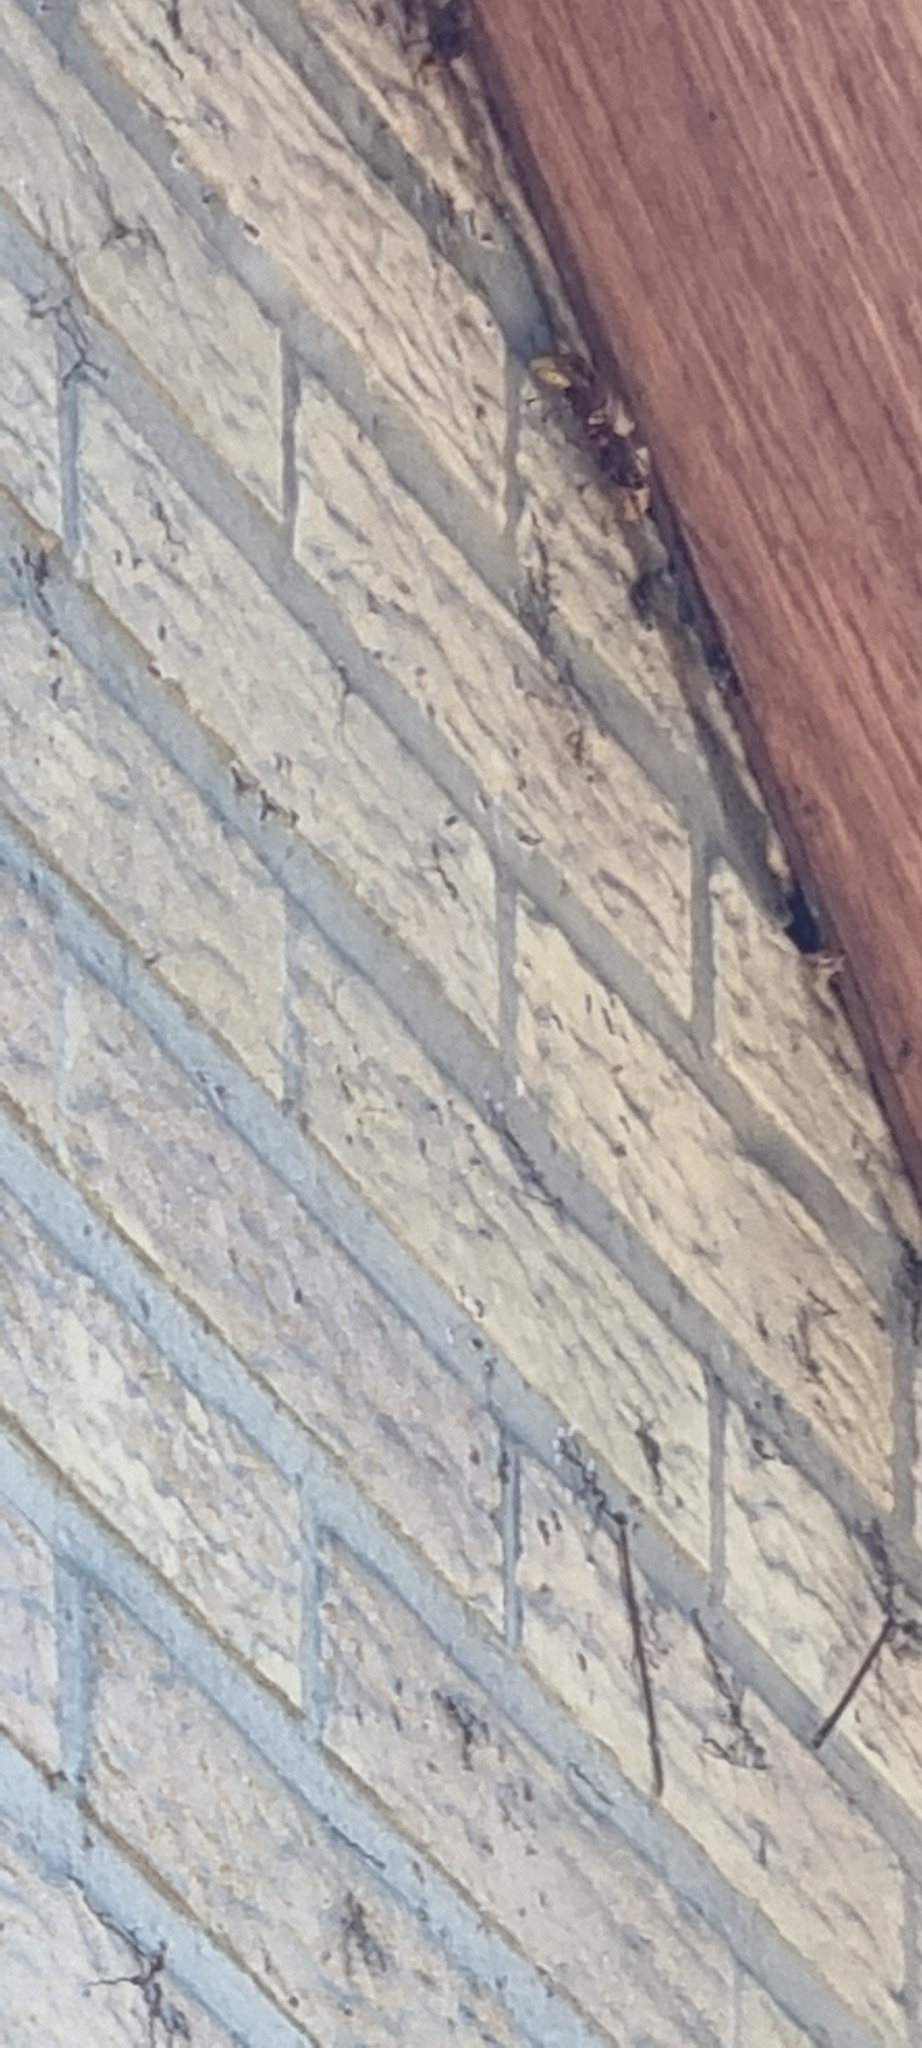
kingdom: Animalia
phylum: Arthropoda
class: Insecta
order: Hymenoptera
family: Vespidae
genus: Vespa
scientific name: Vespa crabro
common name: Hornet
